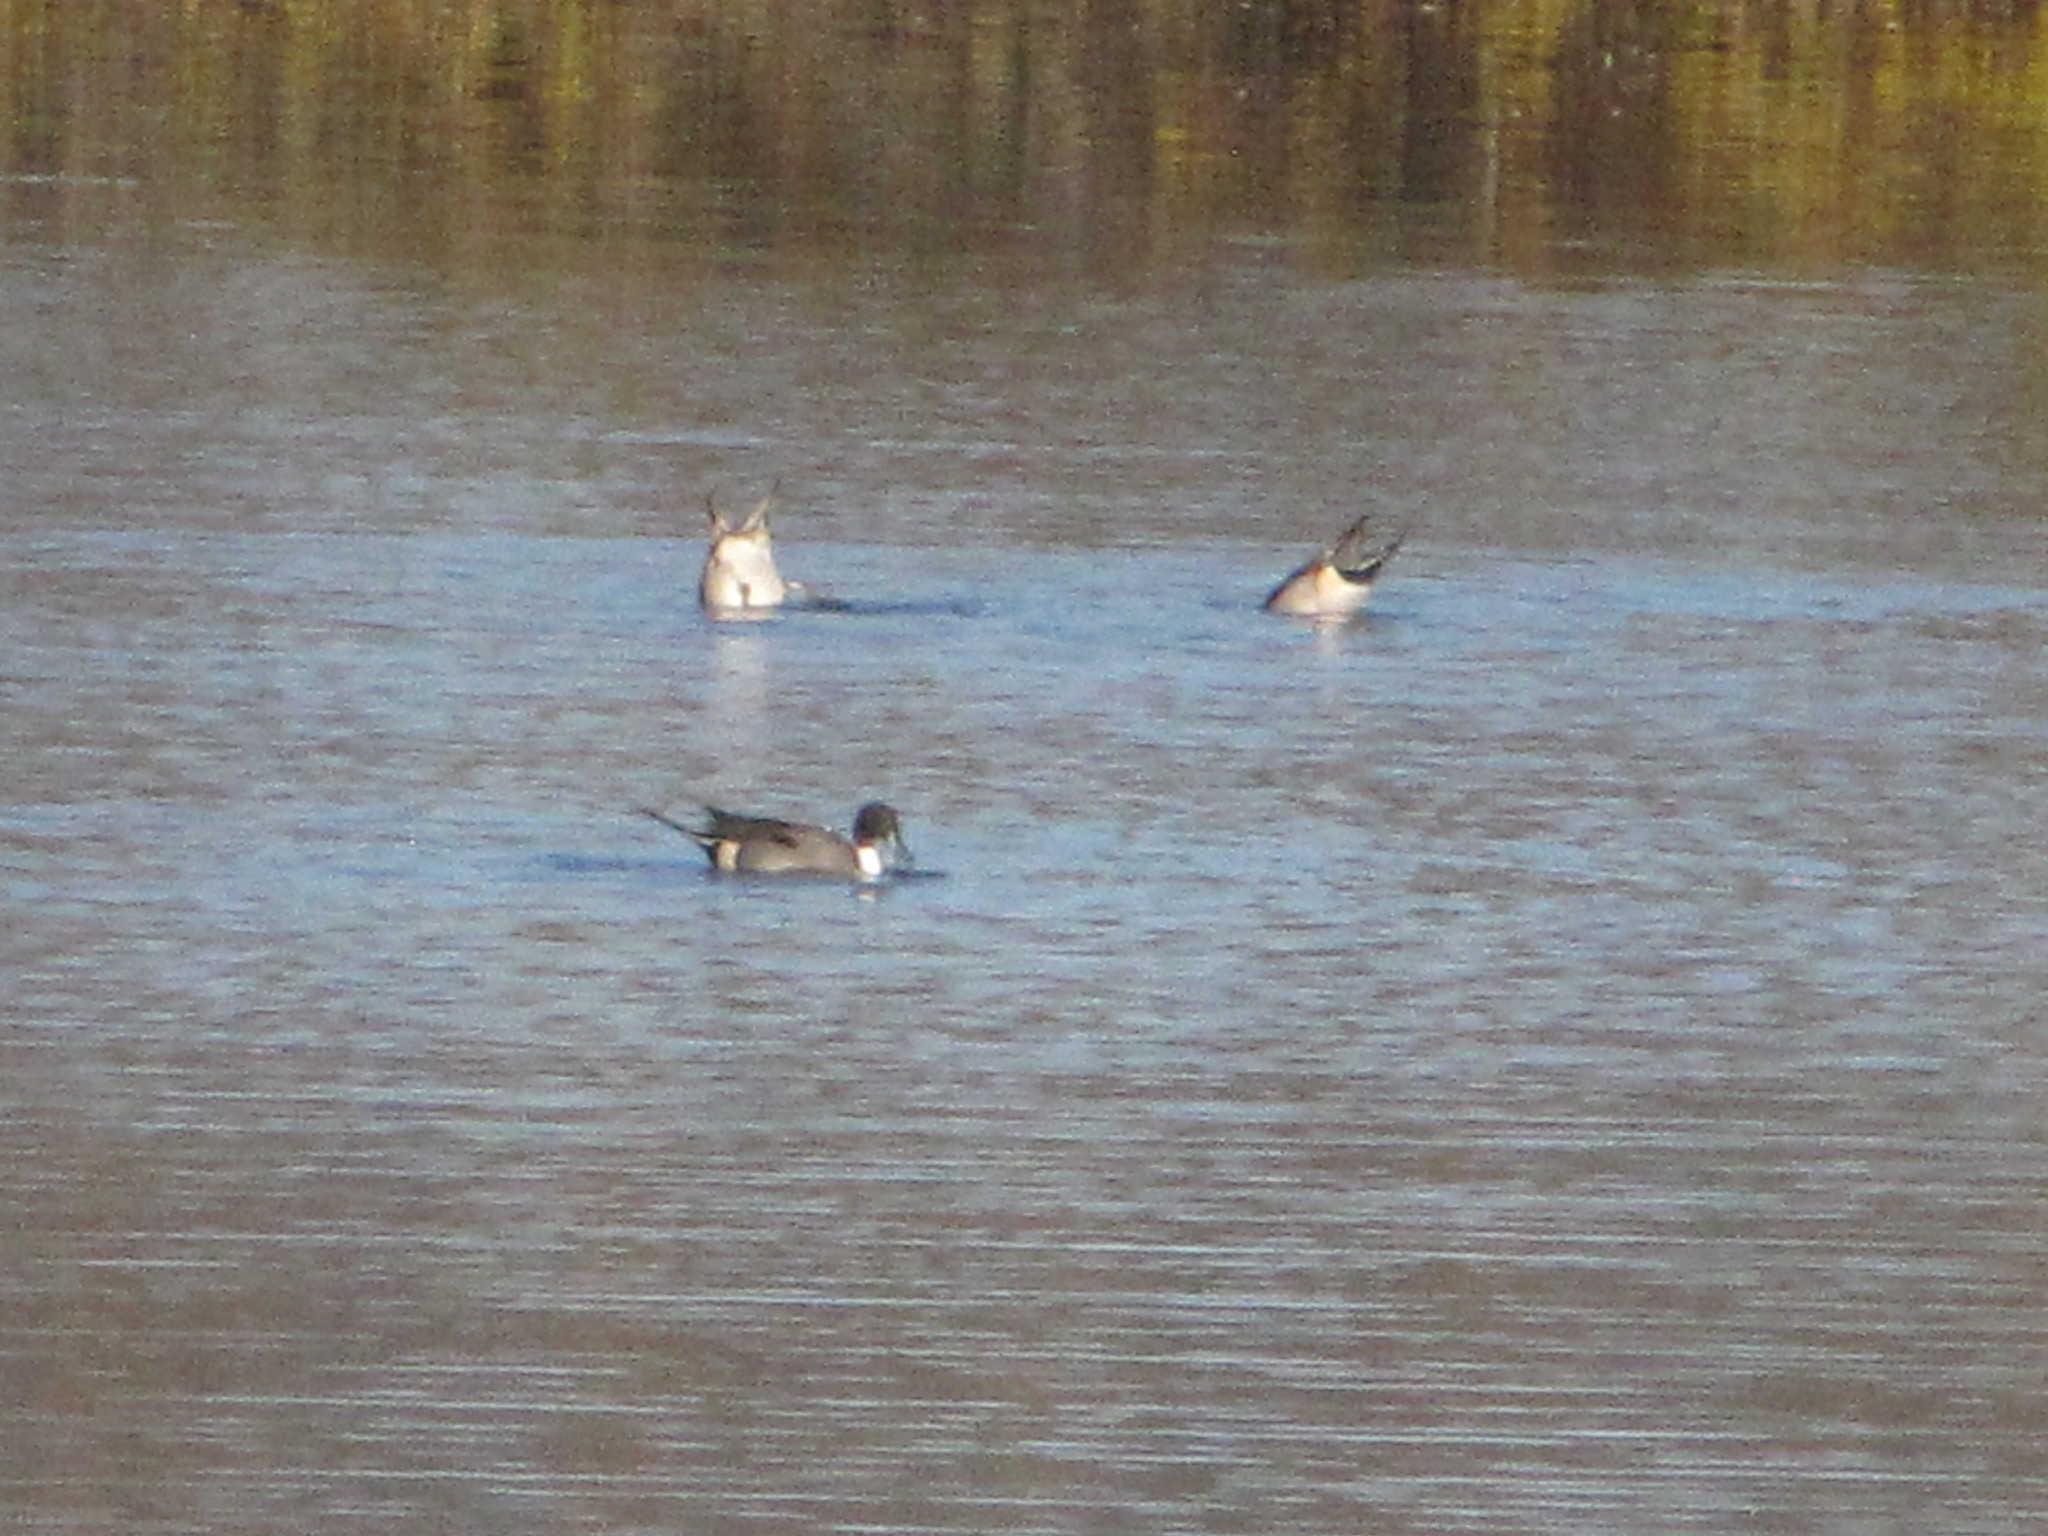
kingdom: Animalia
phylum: Chordata
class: Aves
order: Anseriformes
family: Anatidae
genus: Anas
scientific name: Anas acuta
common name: Northern pintail
